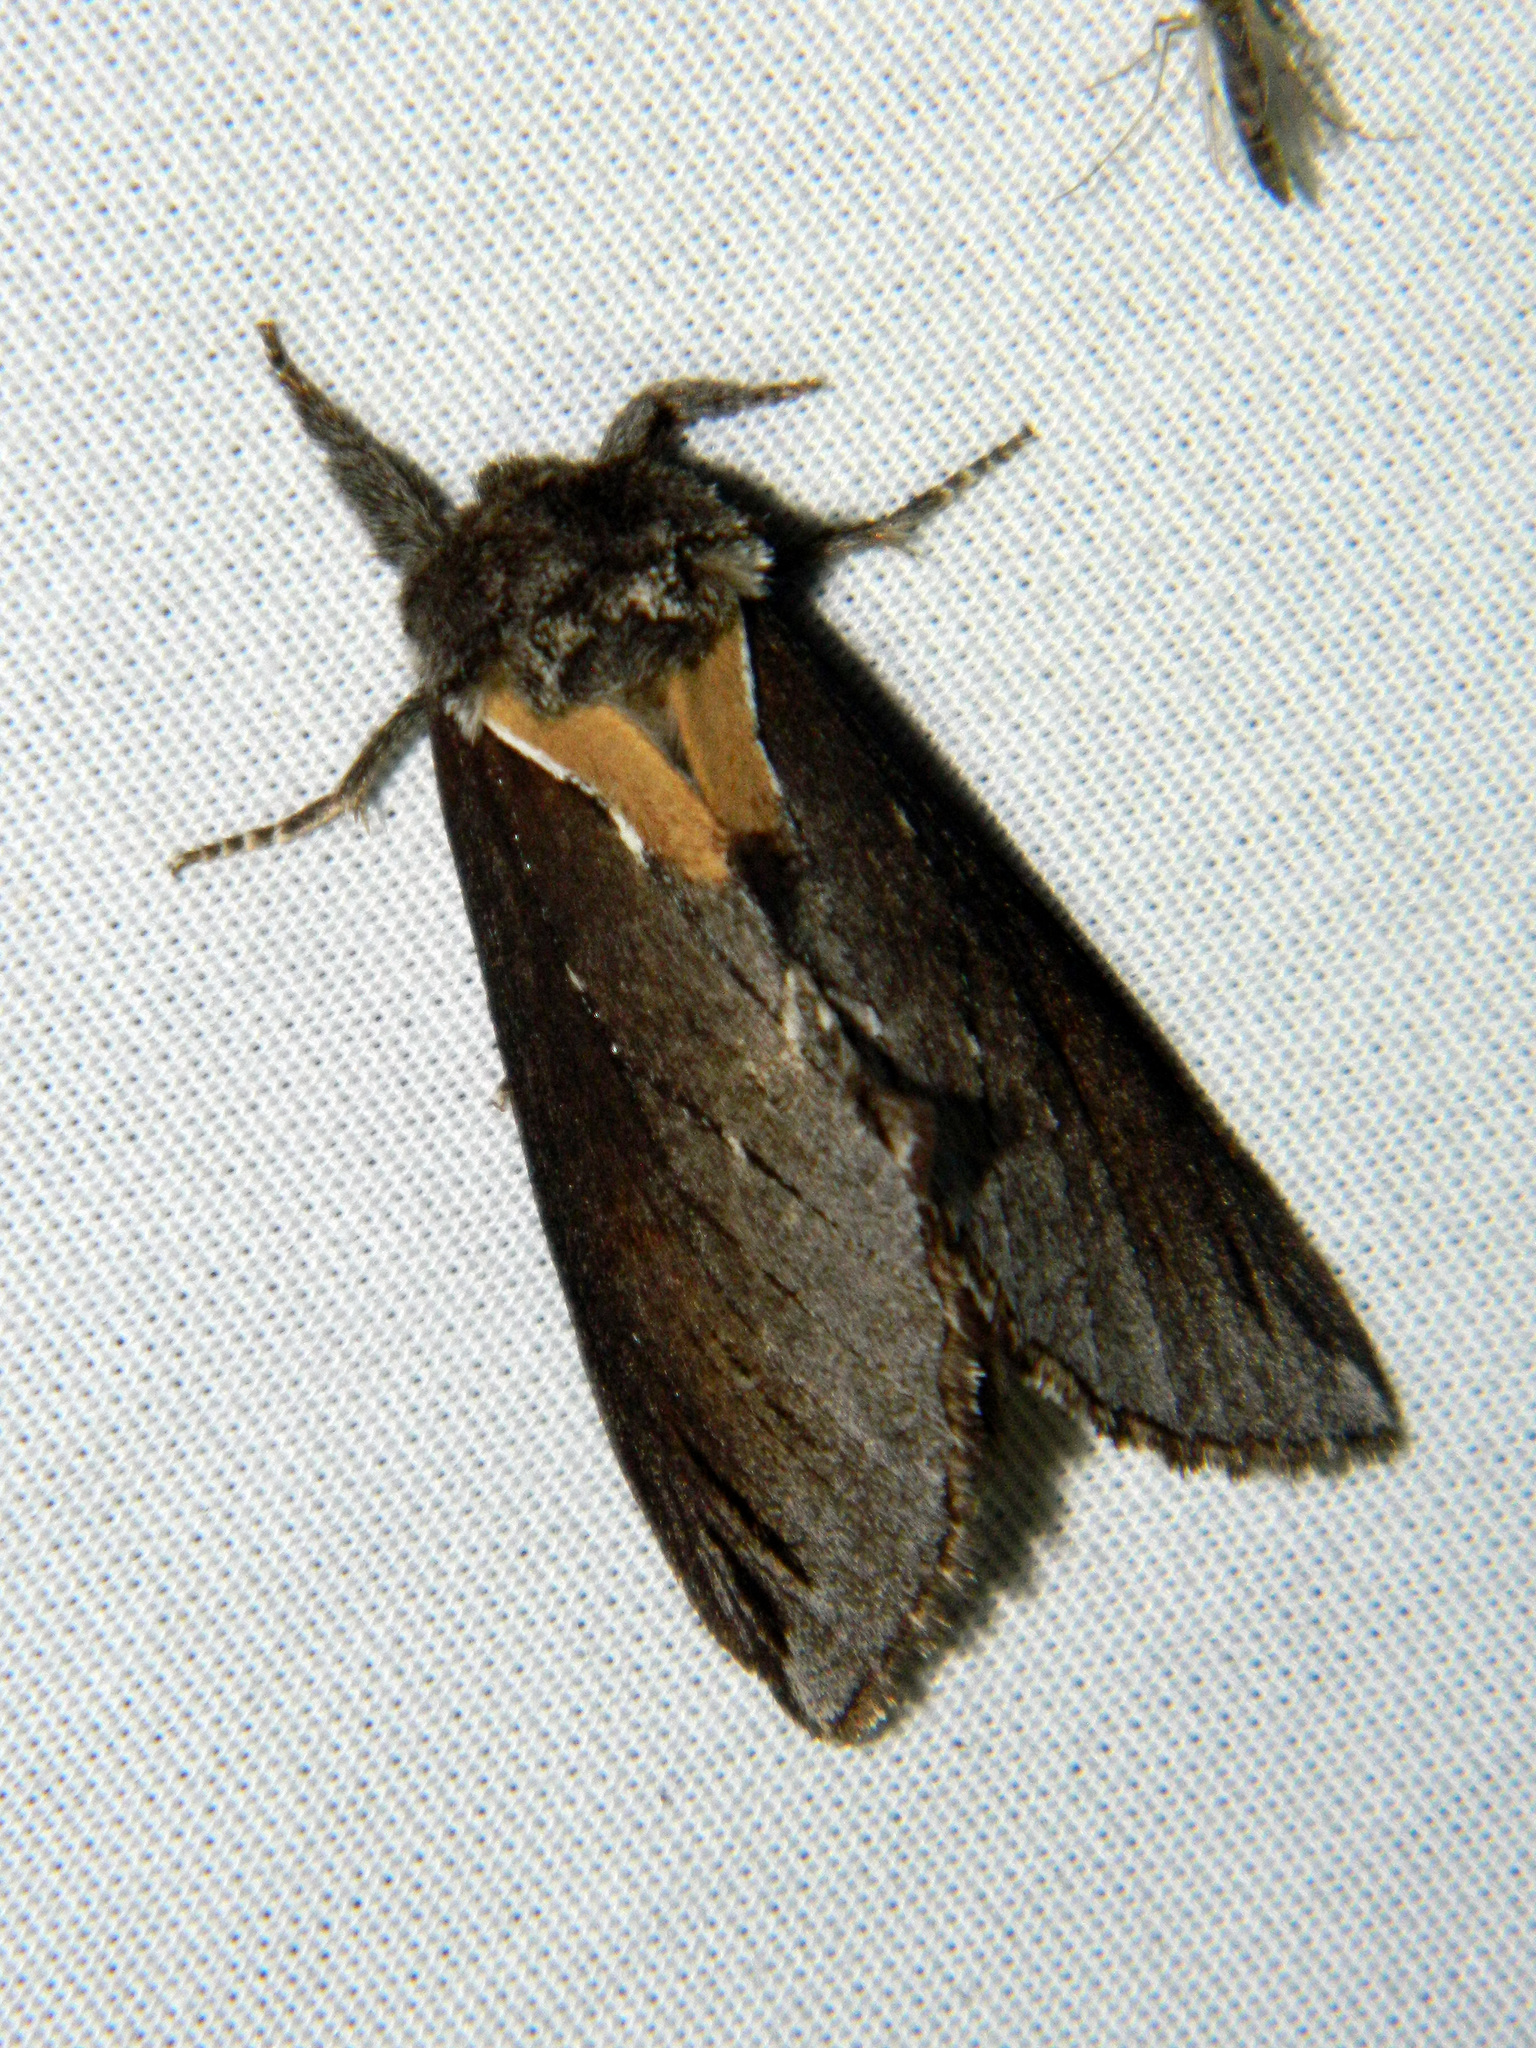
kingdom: Animalia
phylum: Arthropoda
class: Insecta
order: Lepidoptera
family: Notodontidae
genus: Pheosidea
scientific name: Pheosidea elegans
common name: Elegant prominent
